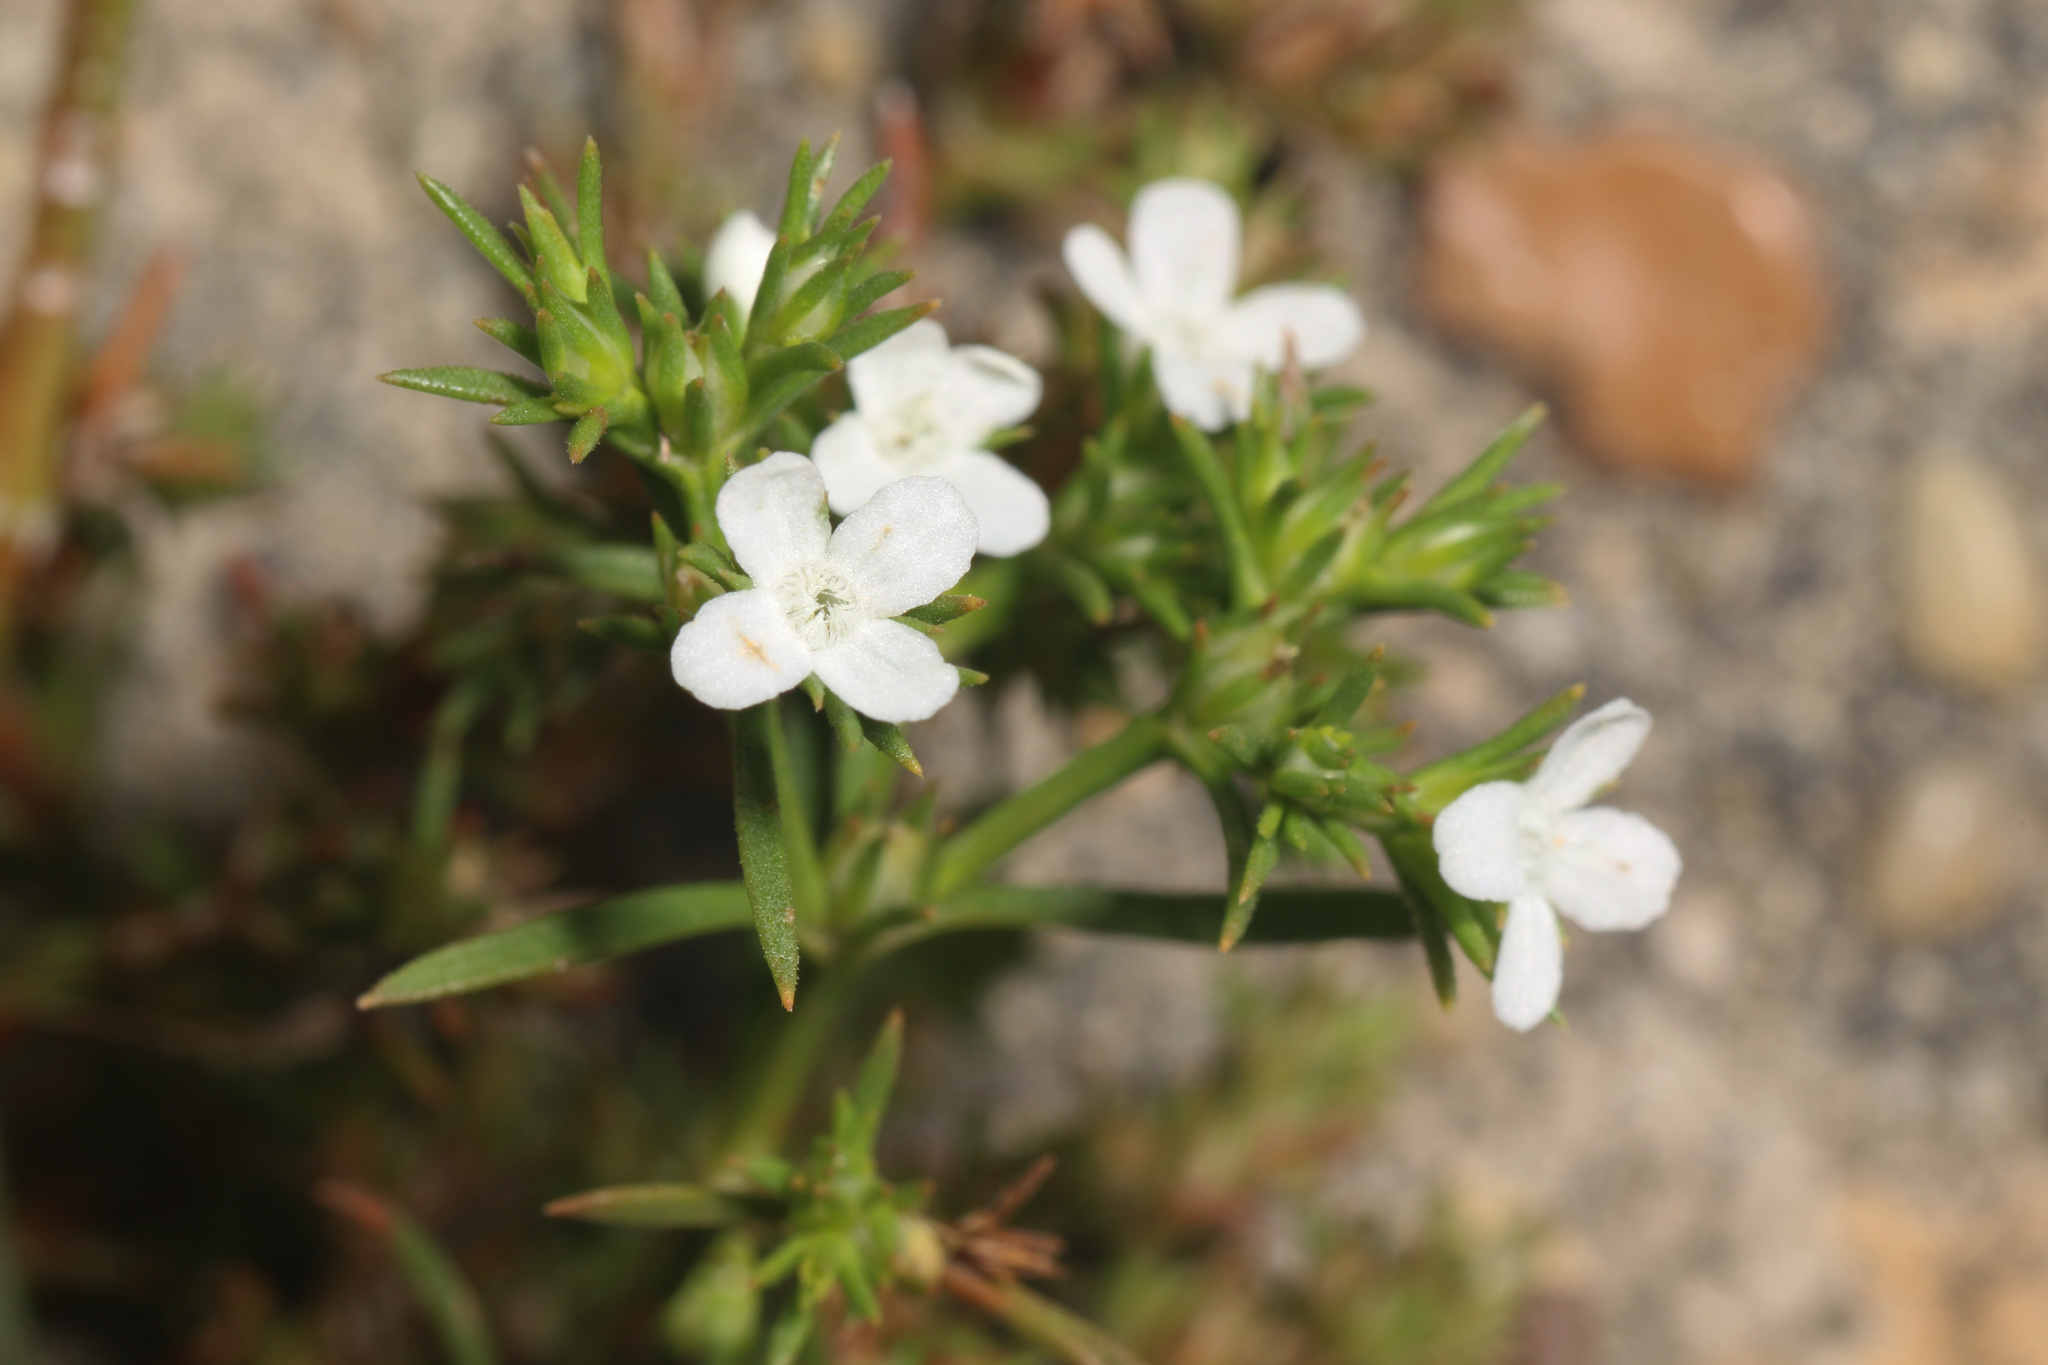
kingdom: Plantae
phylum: Tracheophyta
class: Magnoliopsida
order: Lamiales
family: Tetrachondraceae
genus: Polypremum
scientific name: Polypremum procumbens
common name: Juniper-leaf
